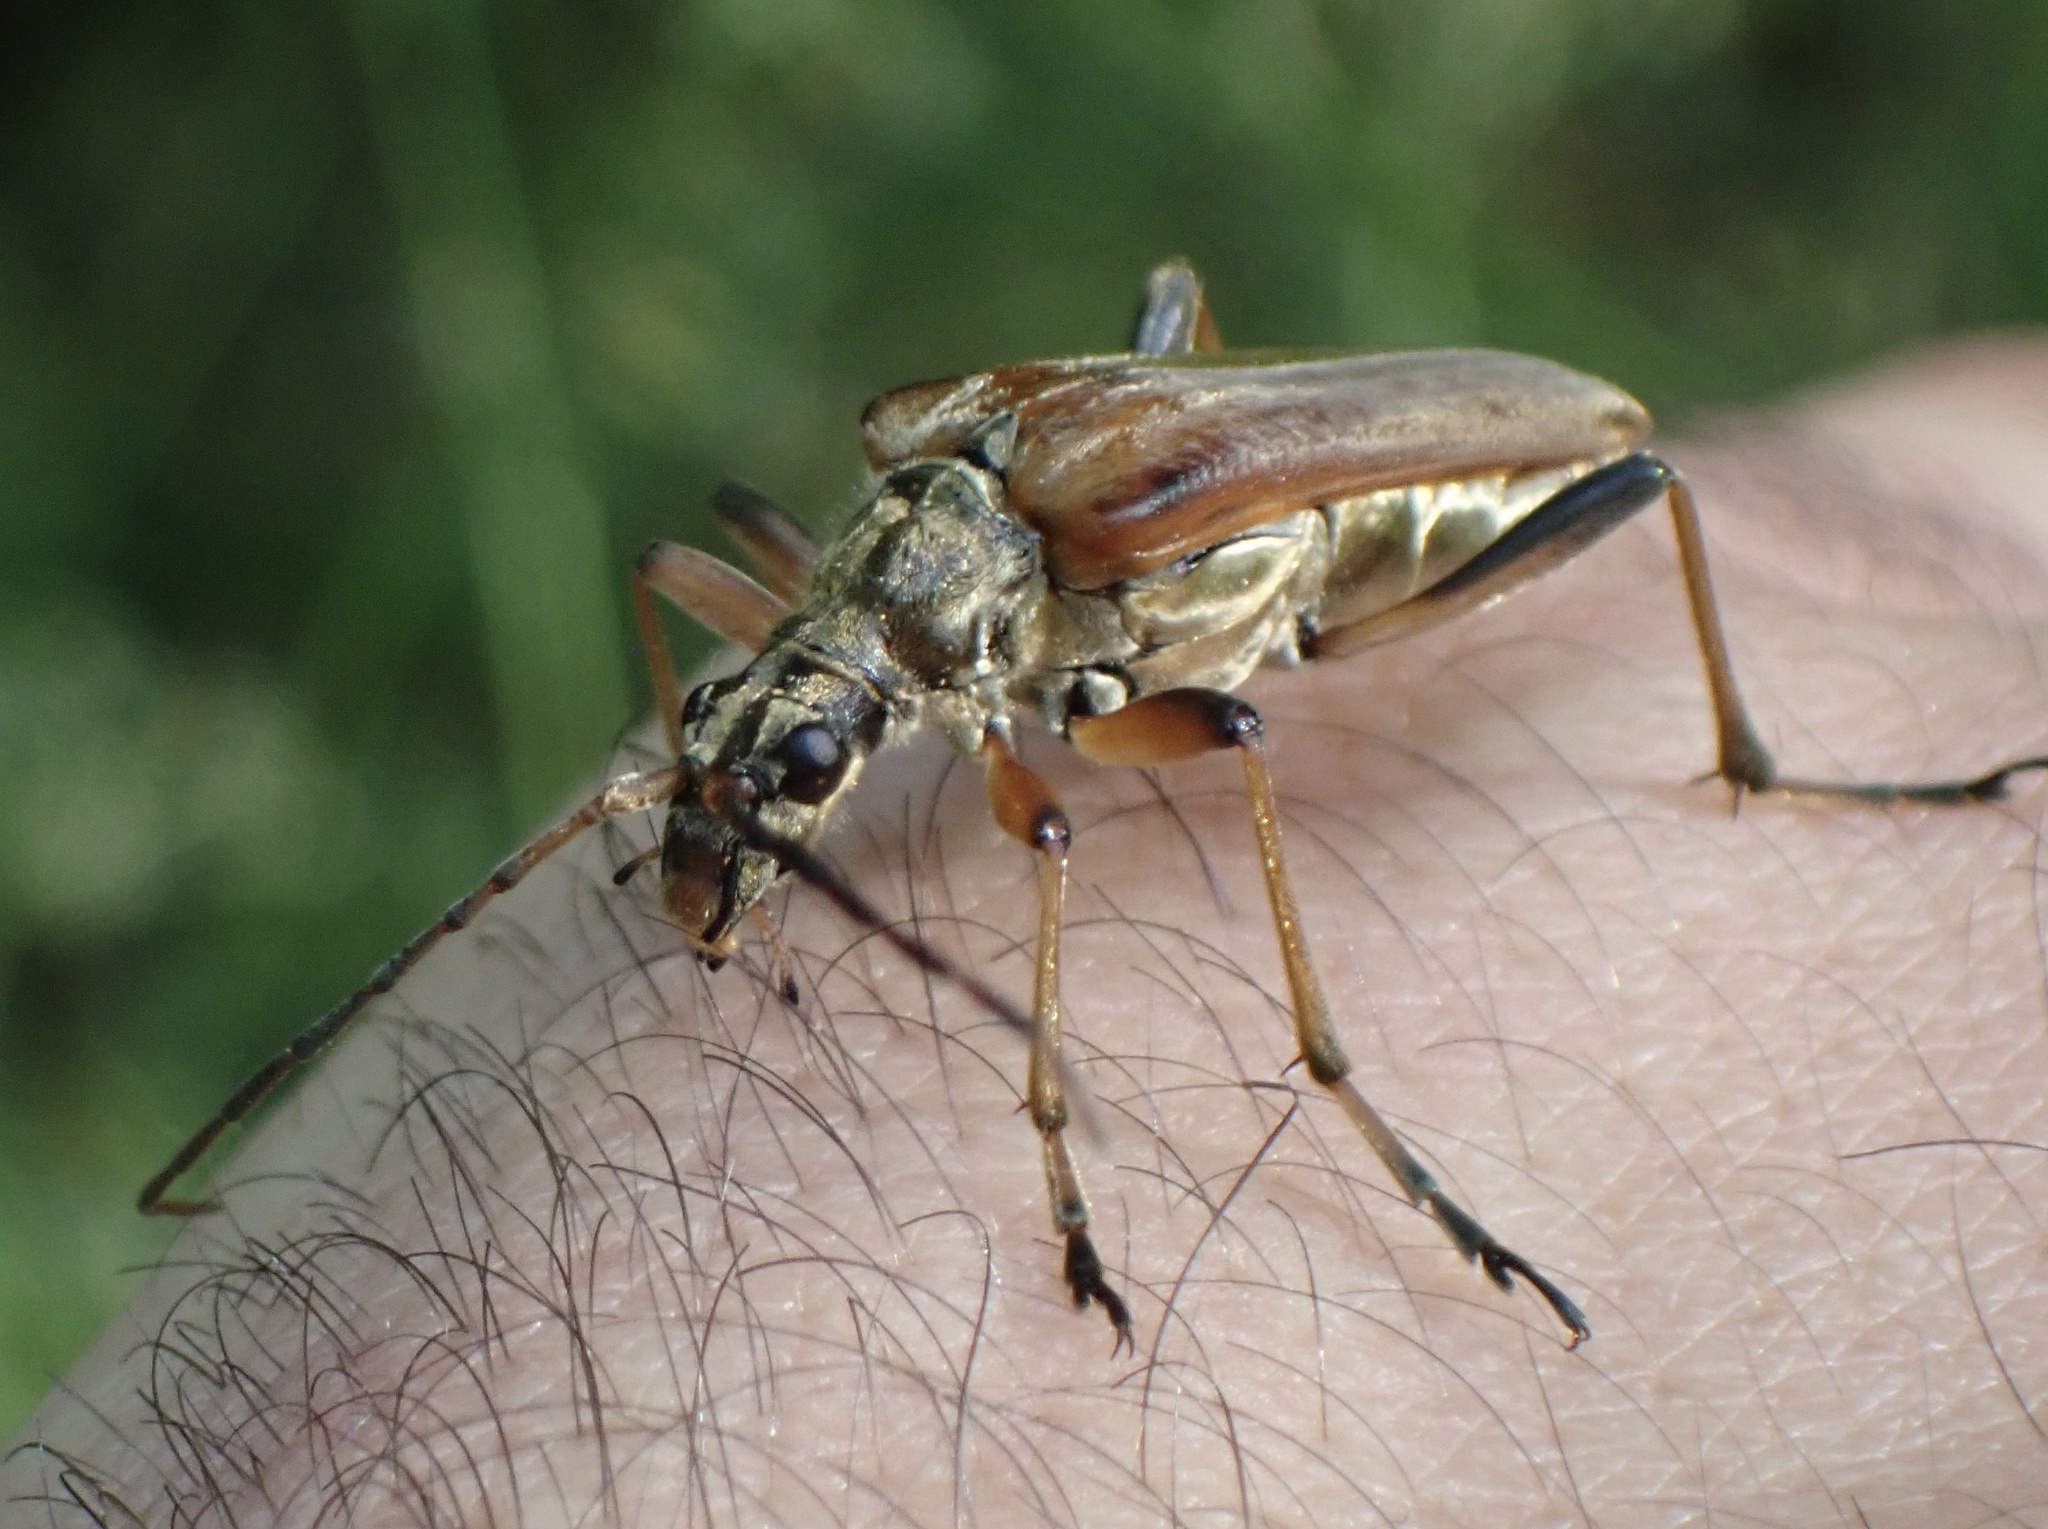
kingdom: Animalia
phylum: Arthropoda
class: Insecta
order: Coleoptera
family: Cerambycidae
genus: Stenocorus
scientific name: Stenocorus meridianus
